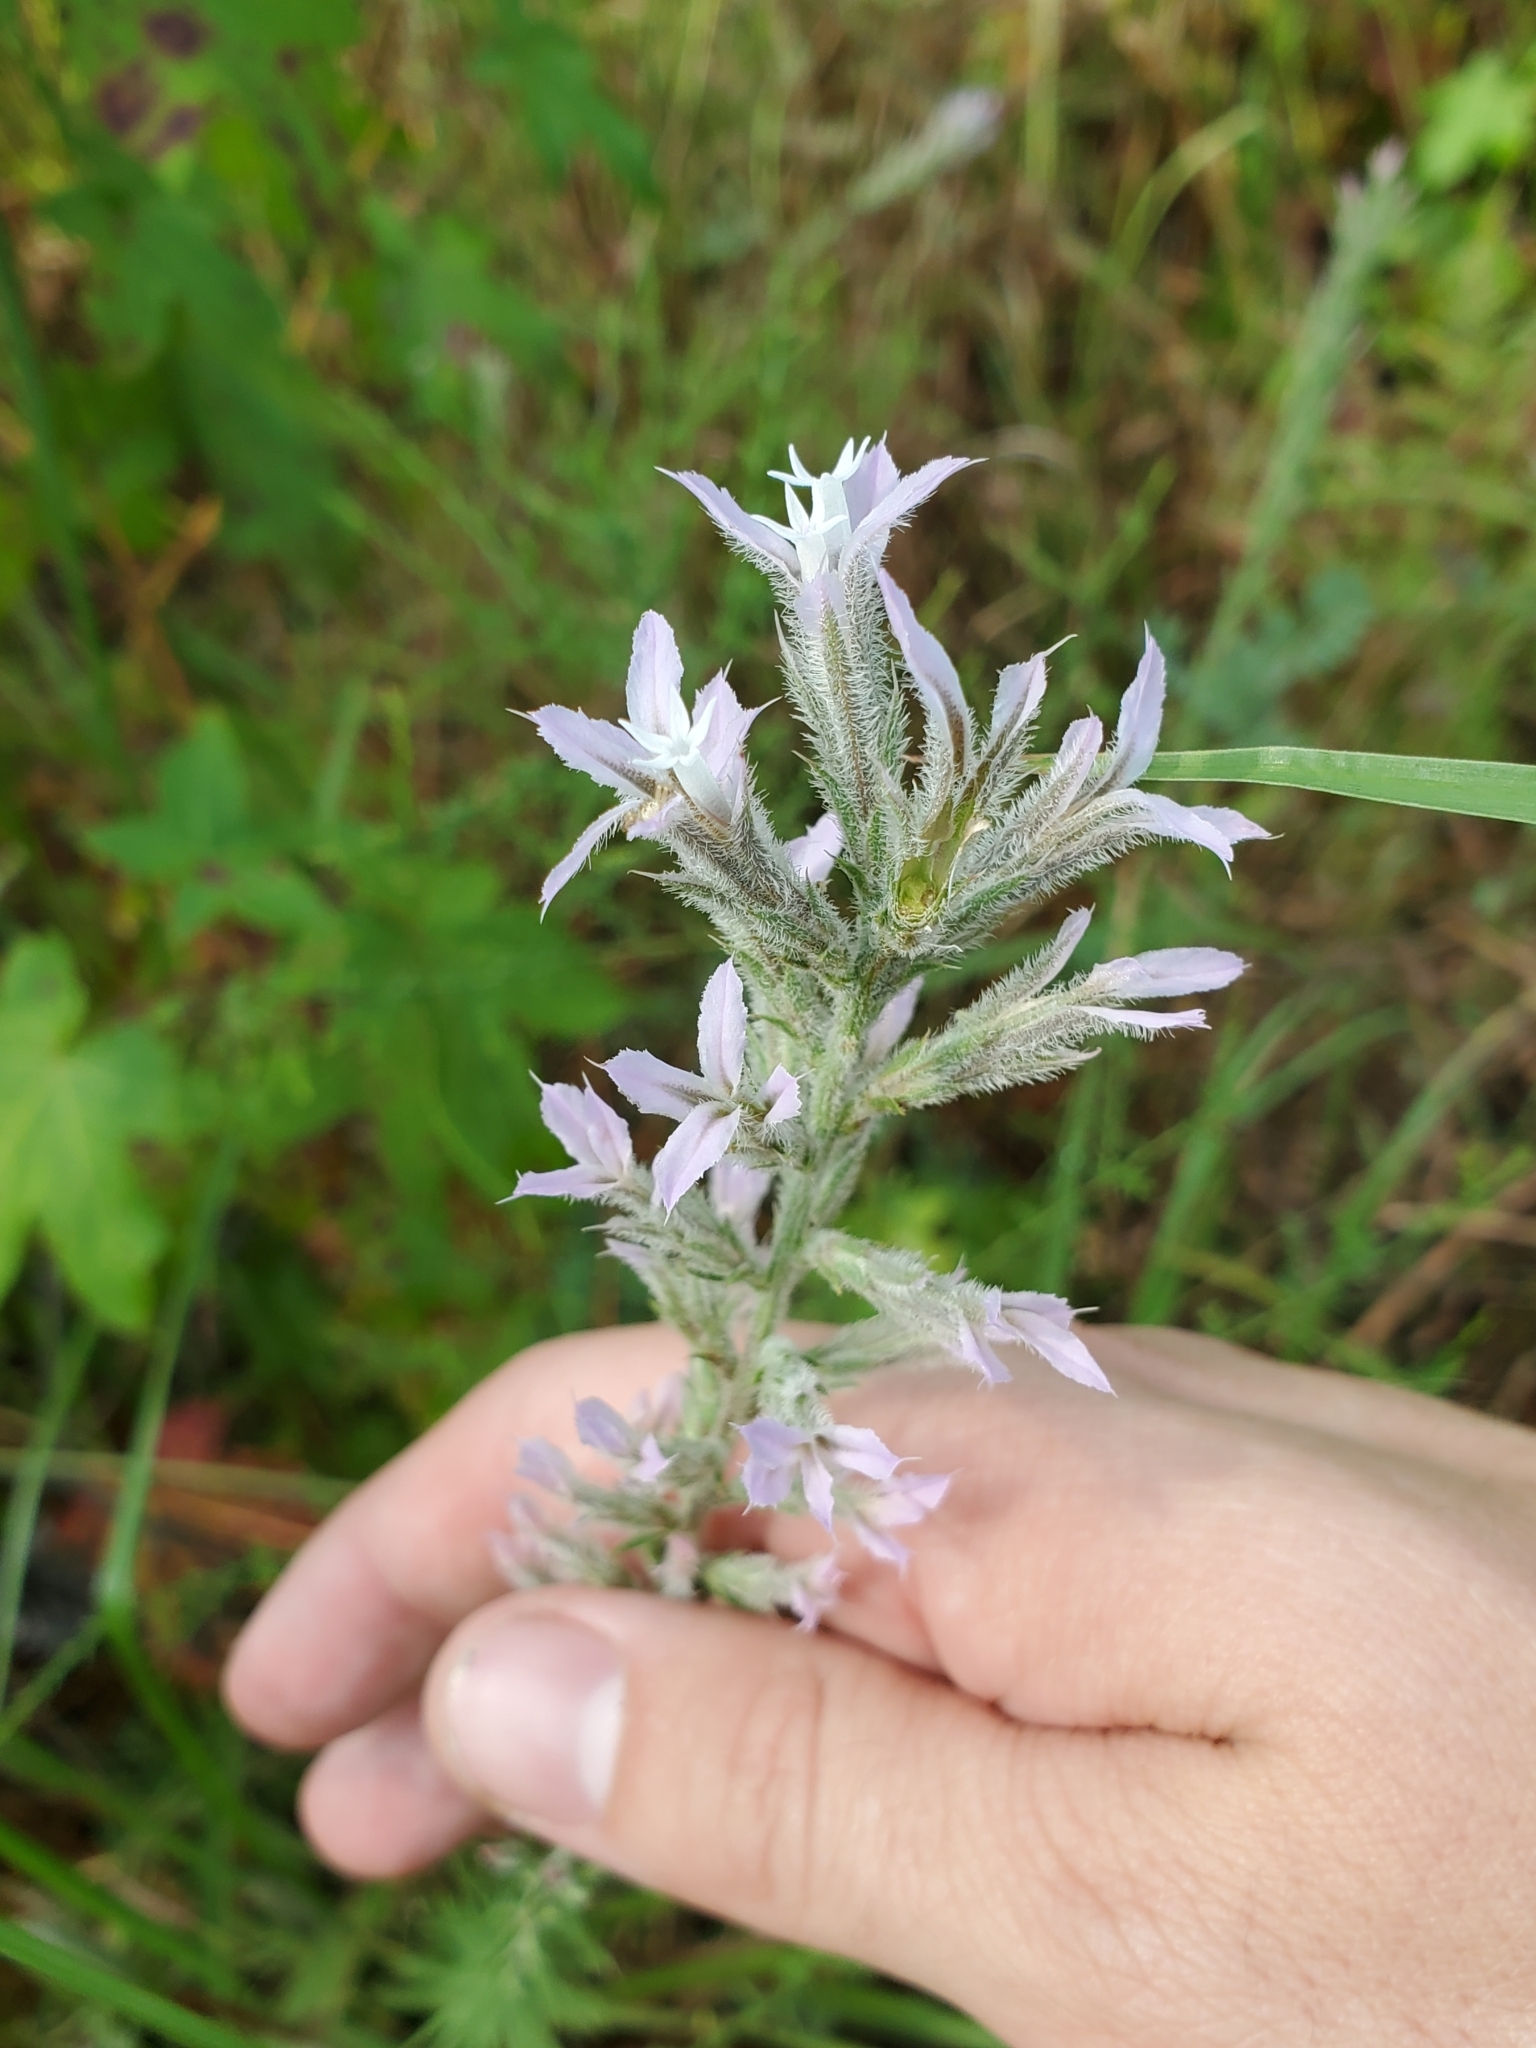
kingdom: Plantae
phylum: Tracheophyta
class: Magnoliopsida
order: Asterales
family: Asteraceae
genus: Liatris
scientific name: Liatris hesperelegans
